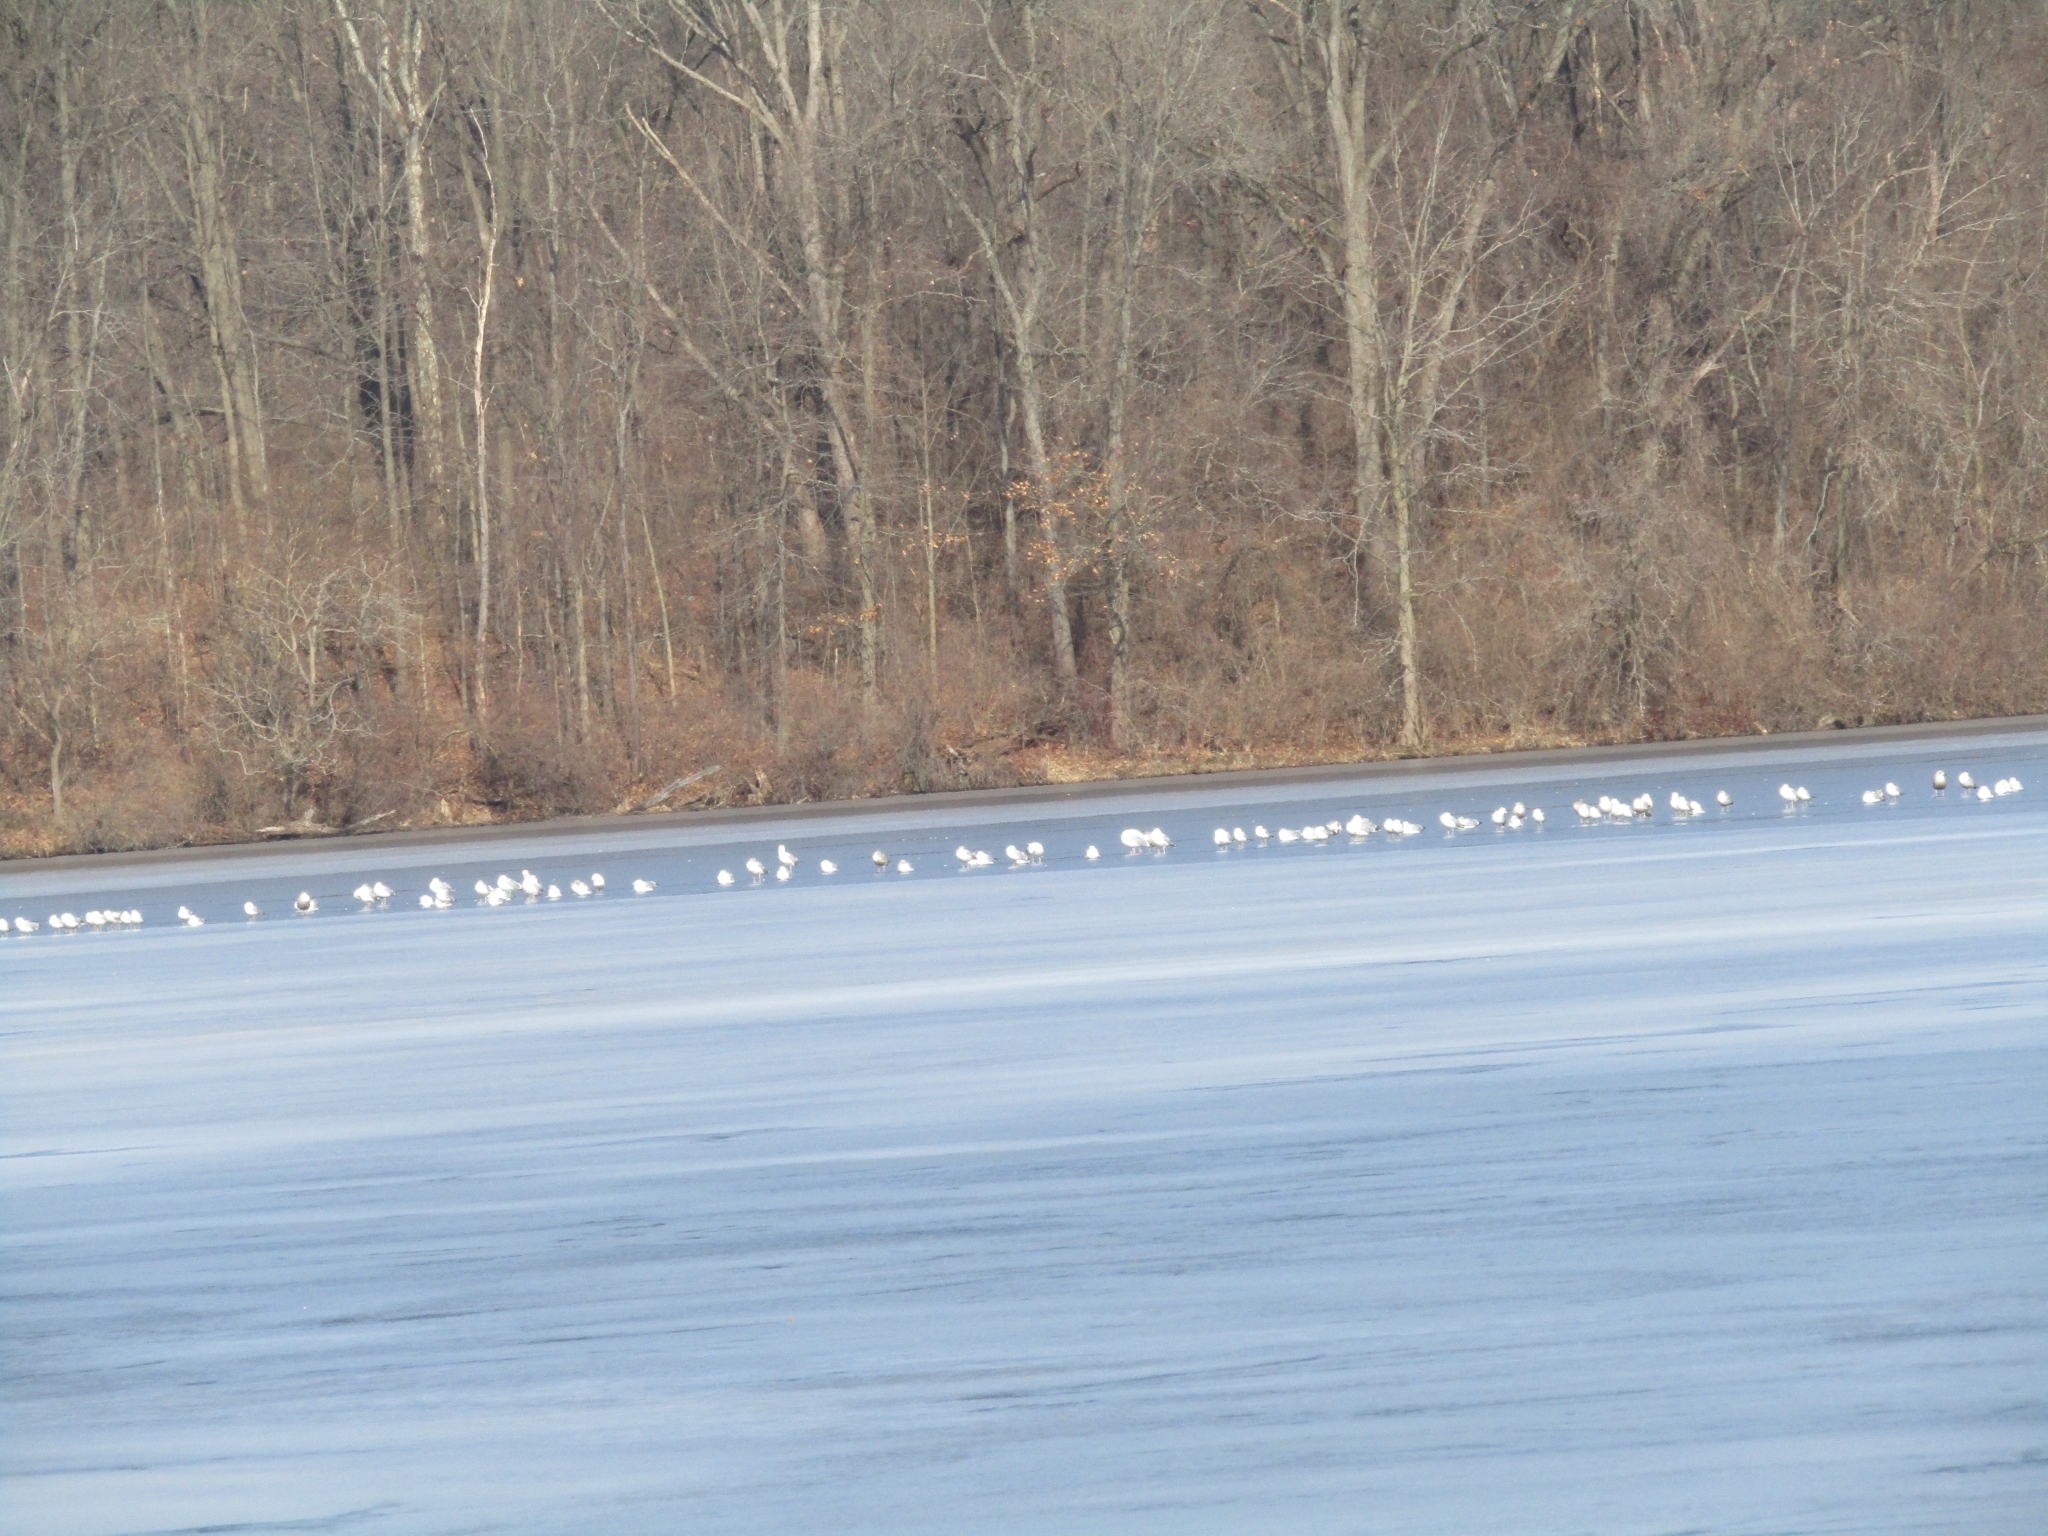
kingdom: Animalia
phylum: Chordata
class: Aves
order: Charadriiformes
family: Laridae
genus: Larus
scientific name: Larus delawarensis
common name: Ring-billed gull
